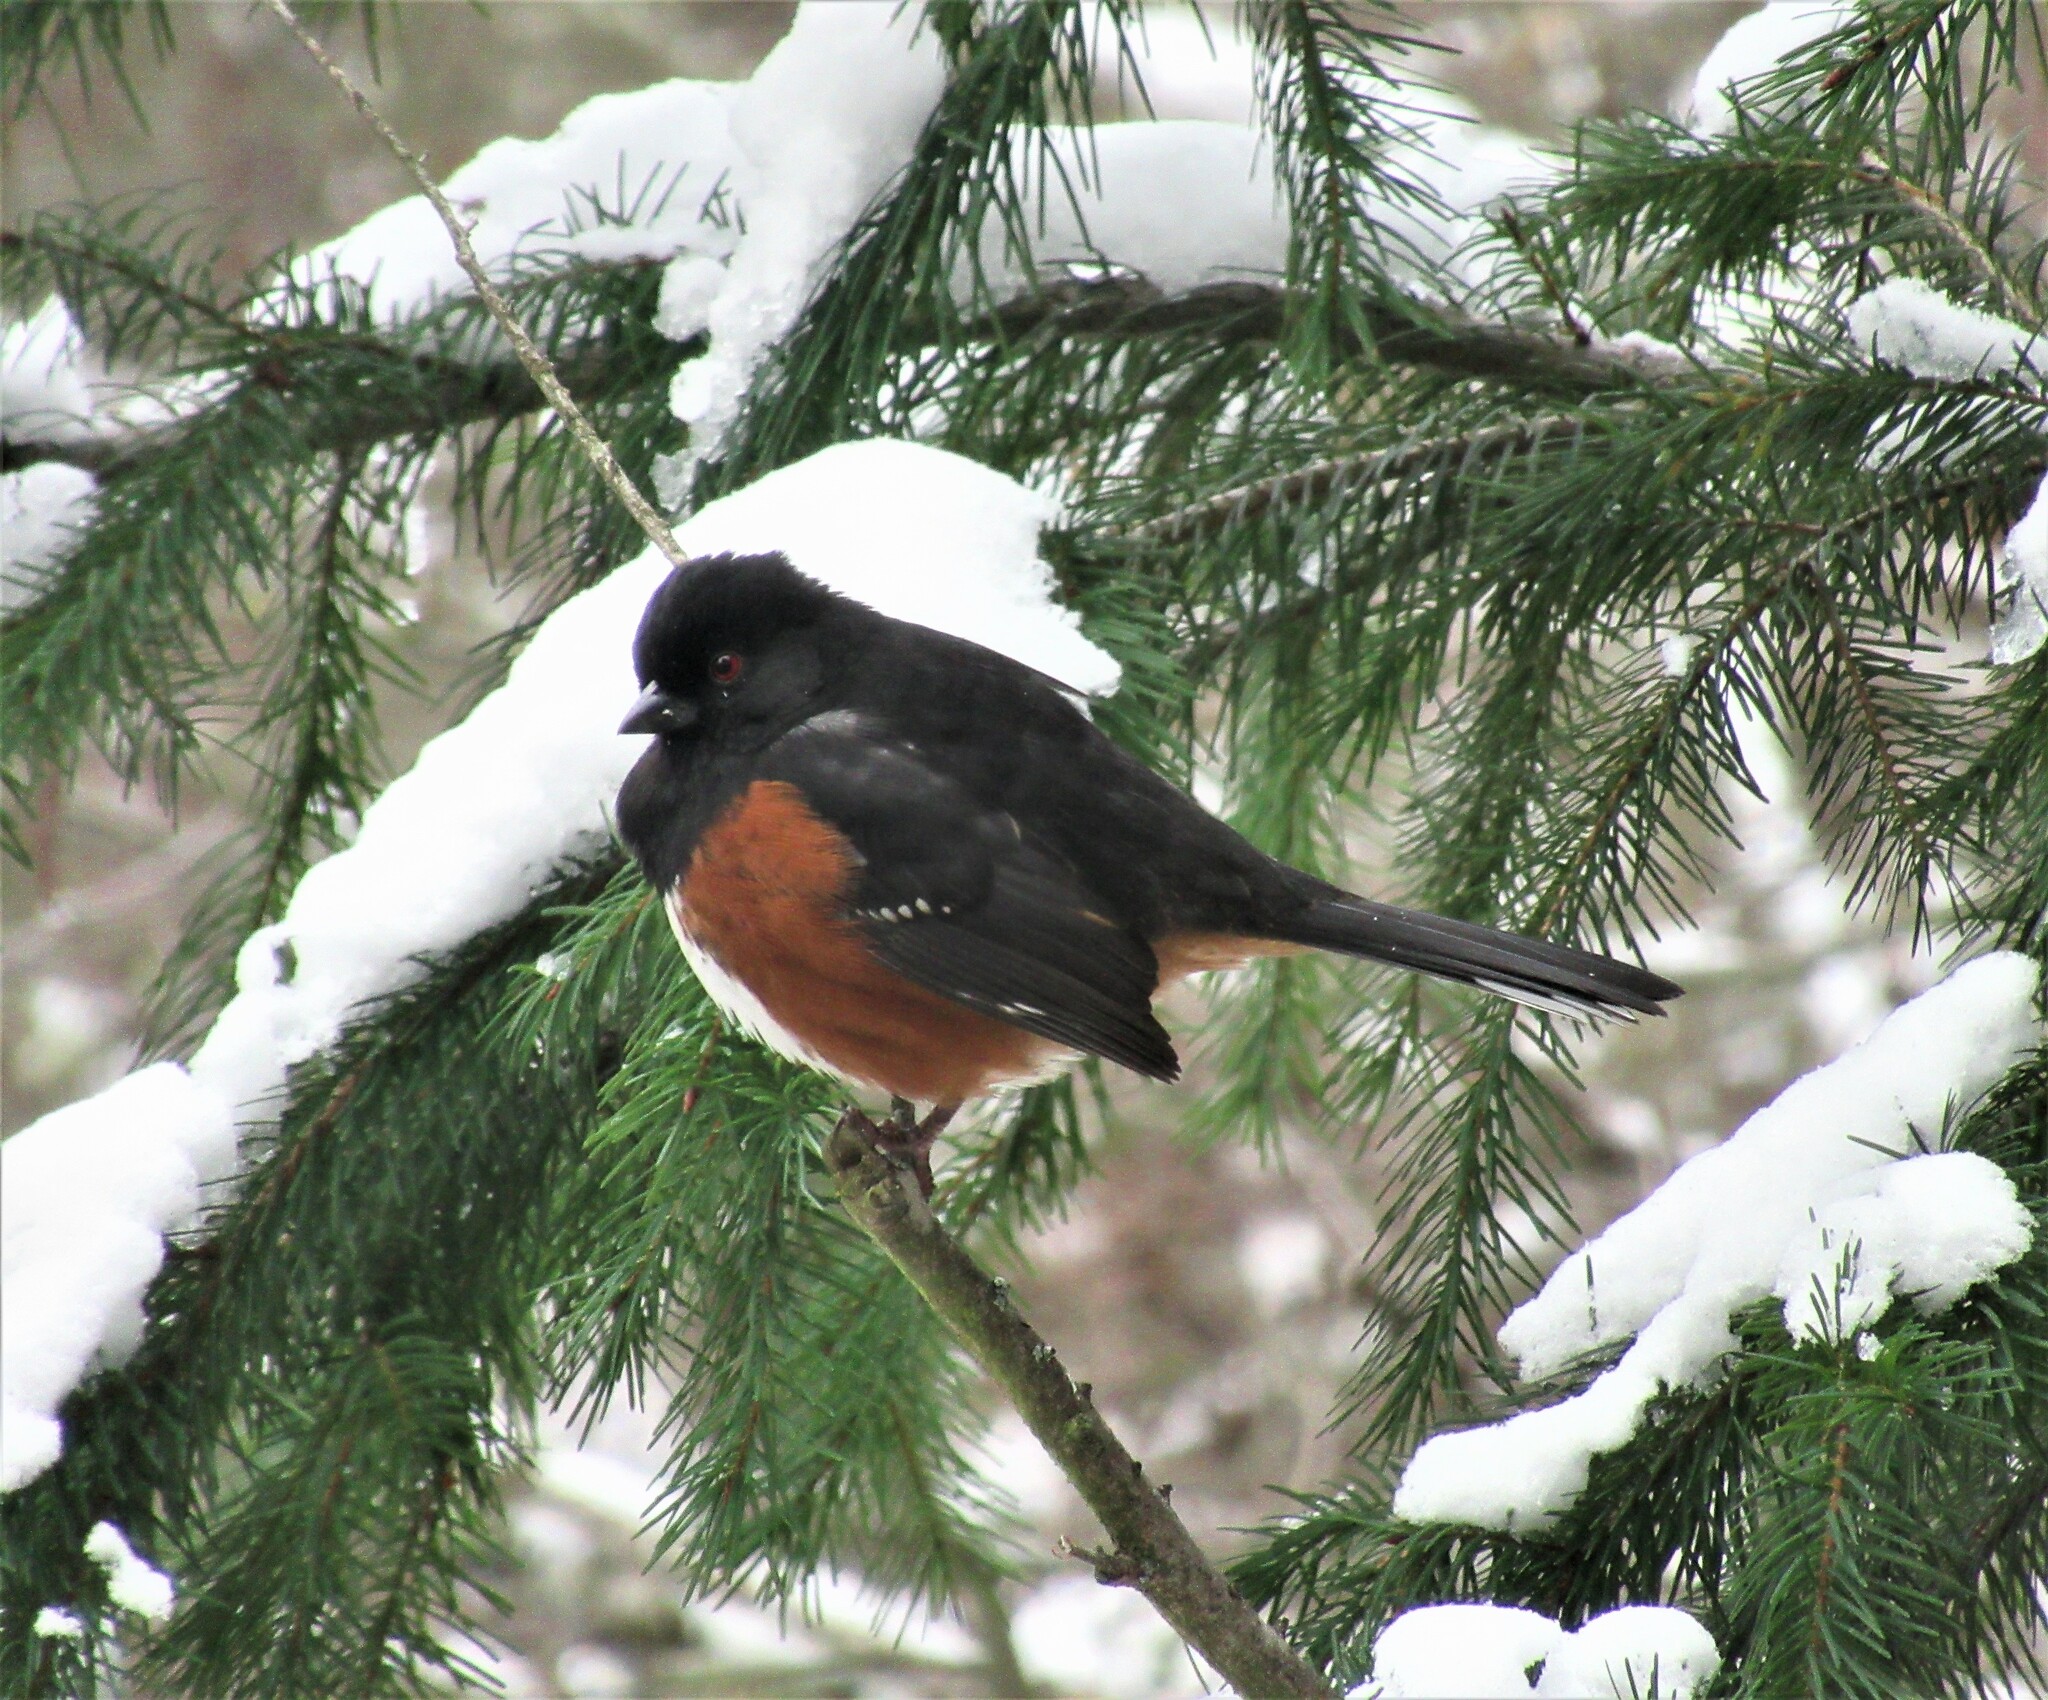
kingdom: Animalia
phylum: Chordata
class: Aves
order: Passeriformes
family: Passerellidae
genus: Pipilo
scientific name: Pipilo maculatus
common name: Spotted towhee
